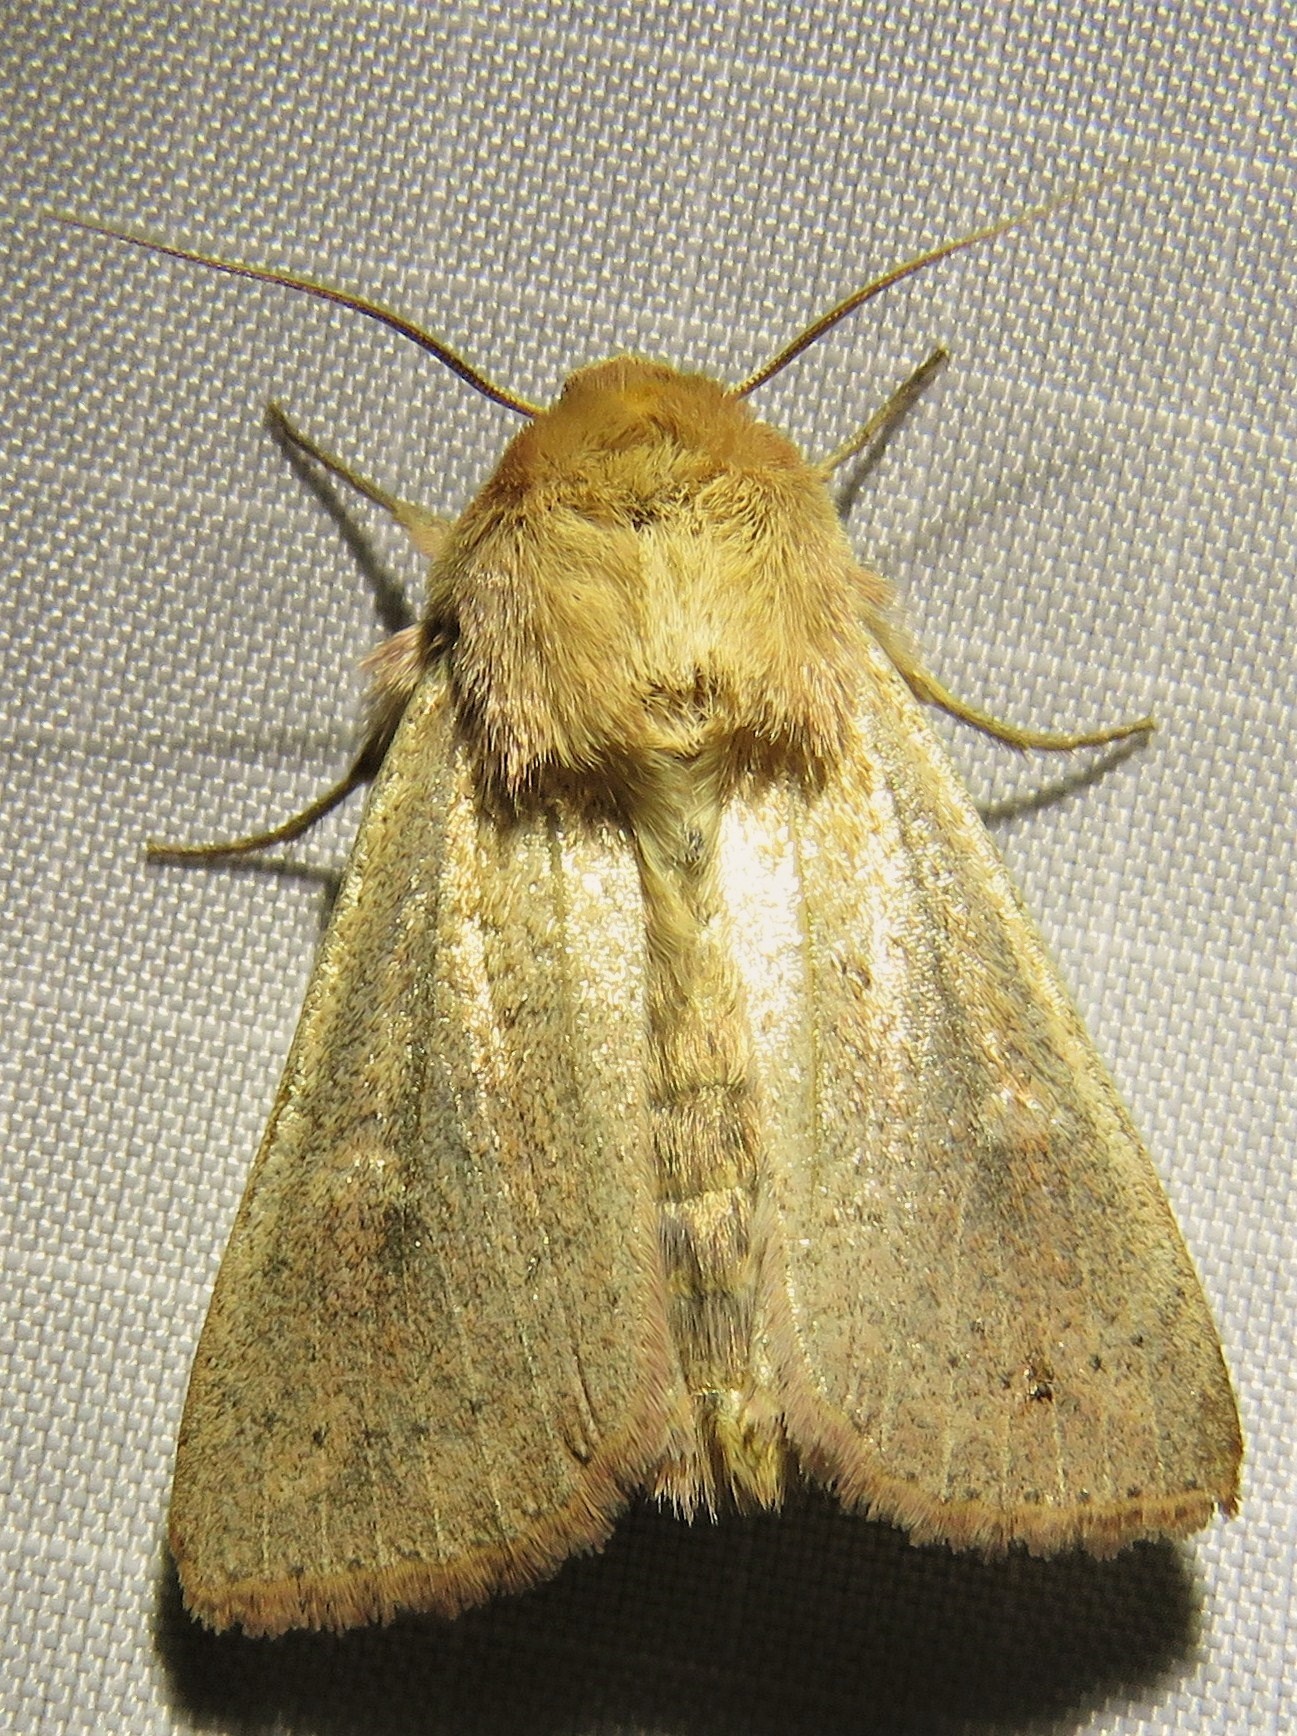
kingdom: Animalia
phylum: Arthropoda
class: Insecta
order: Lepidoptera
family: Noctuidae
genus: Mythimna
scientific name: Mythimna ferrago
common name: Clay
